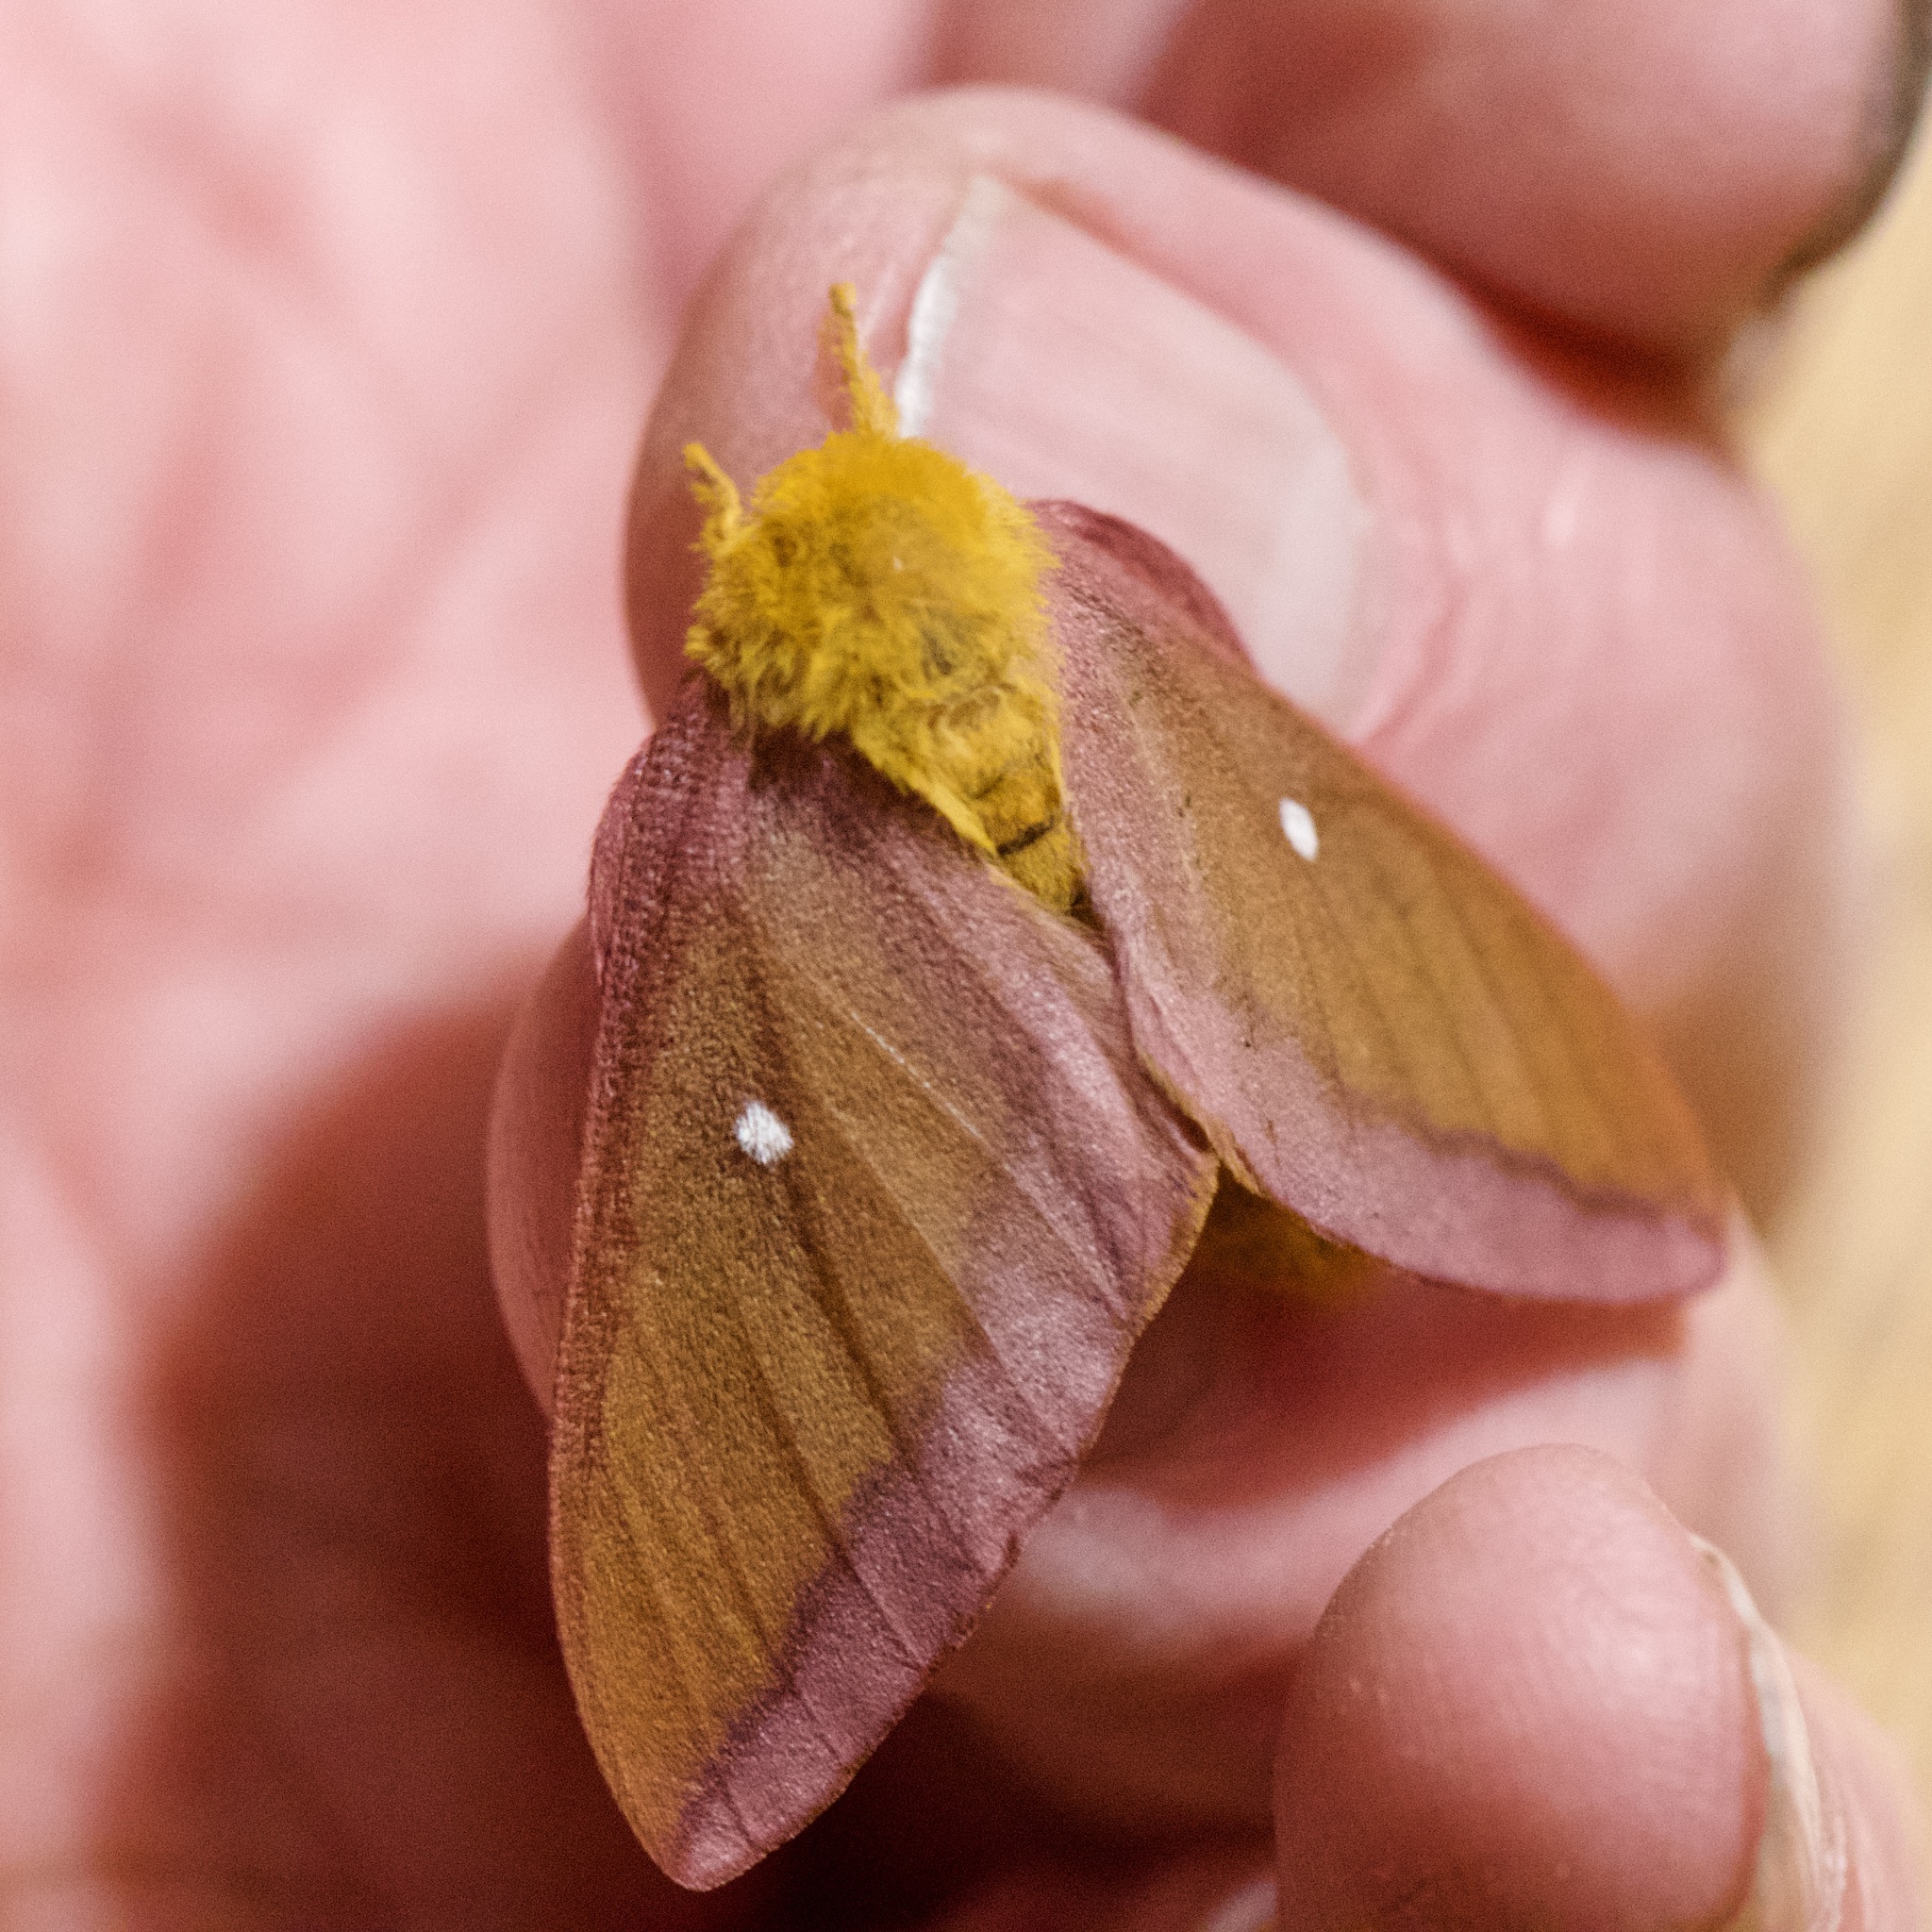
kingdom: Animalia
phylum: Arthropoda
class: Insecta
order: Lepidoptera
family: Saturniidae
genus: Anisota
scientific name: Anisota virginiensis
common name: Pink striped oakworm moth
